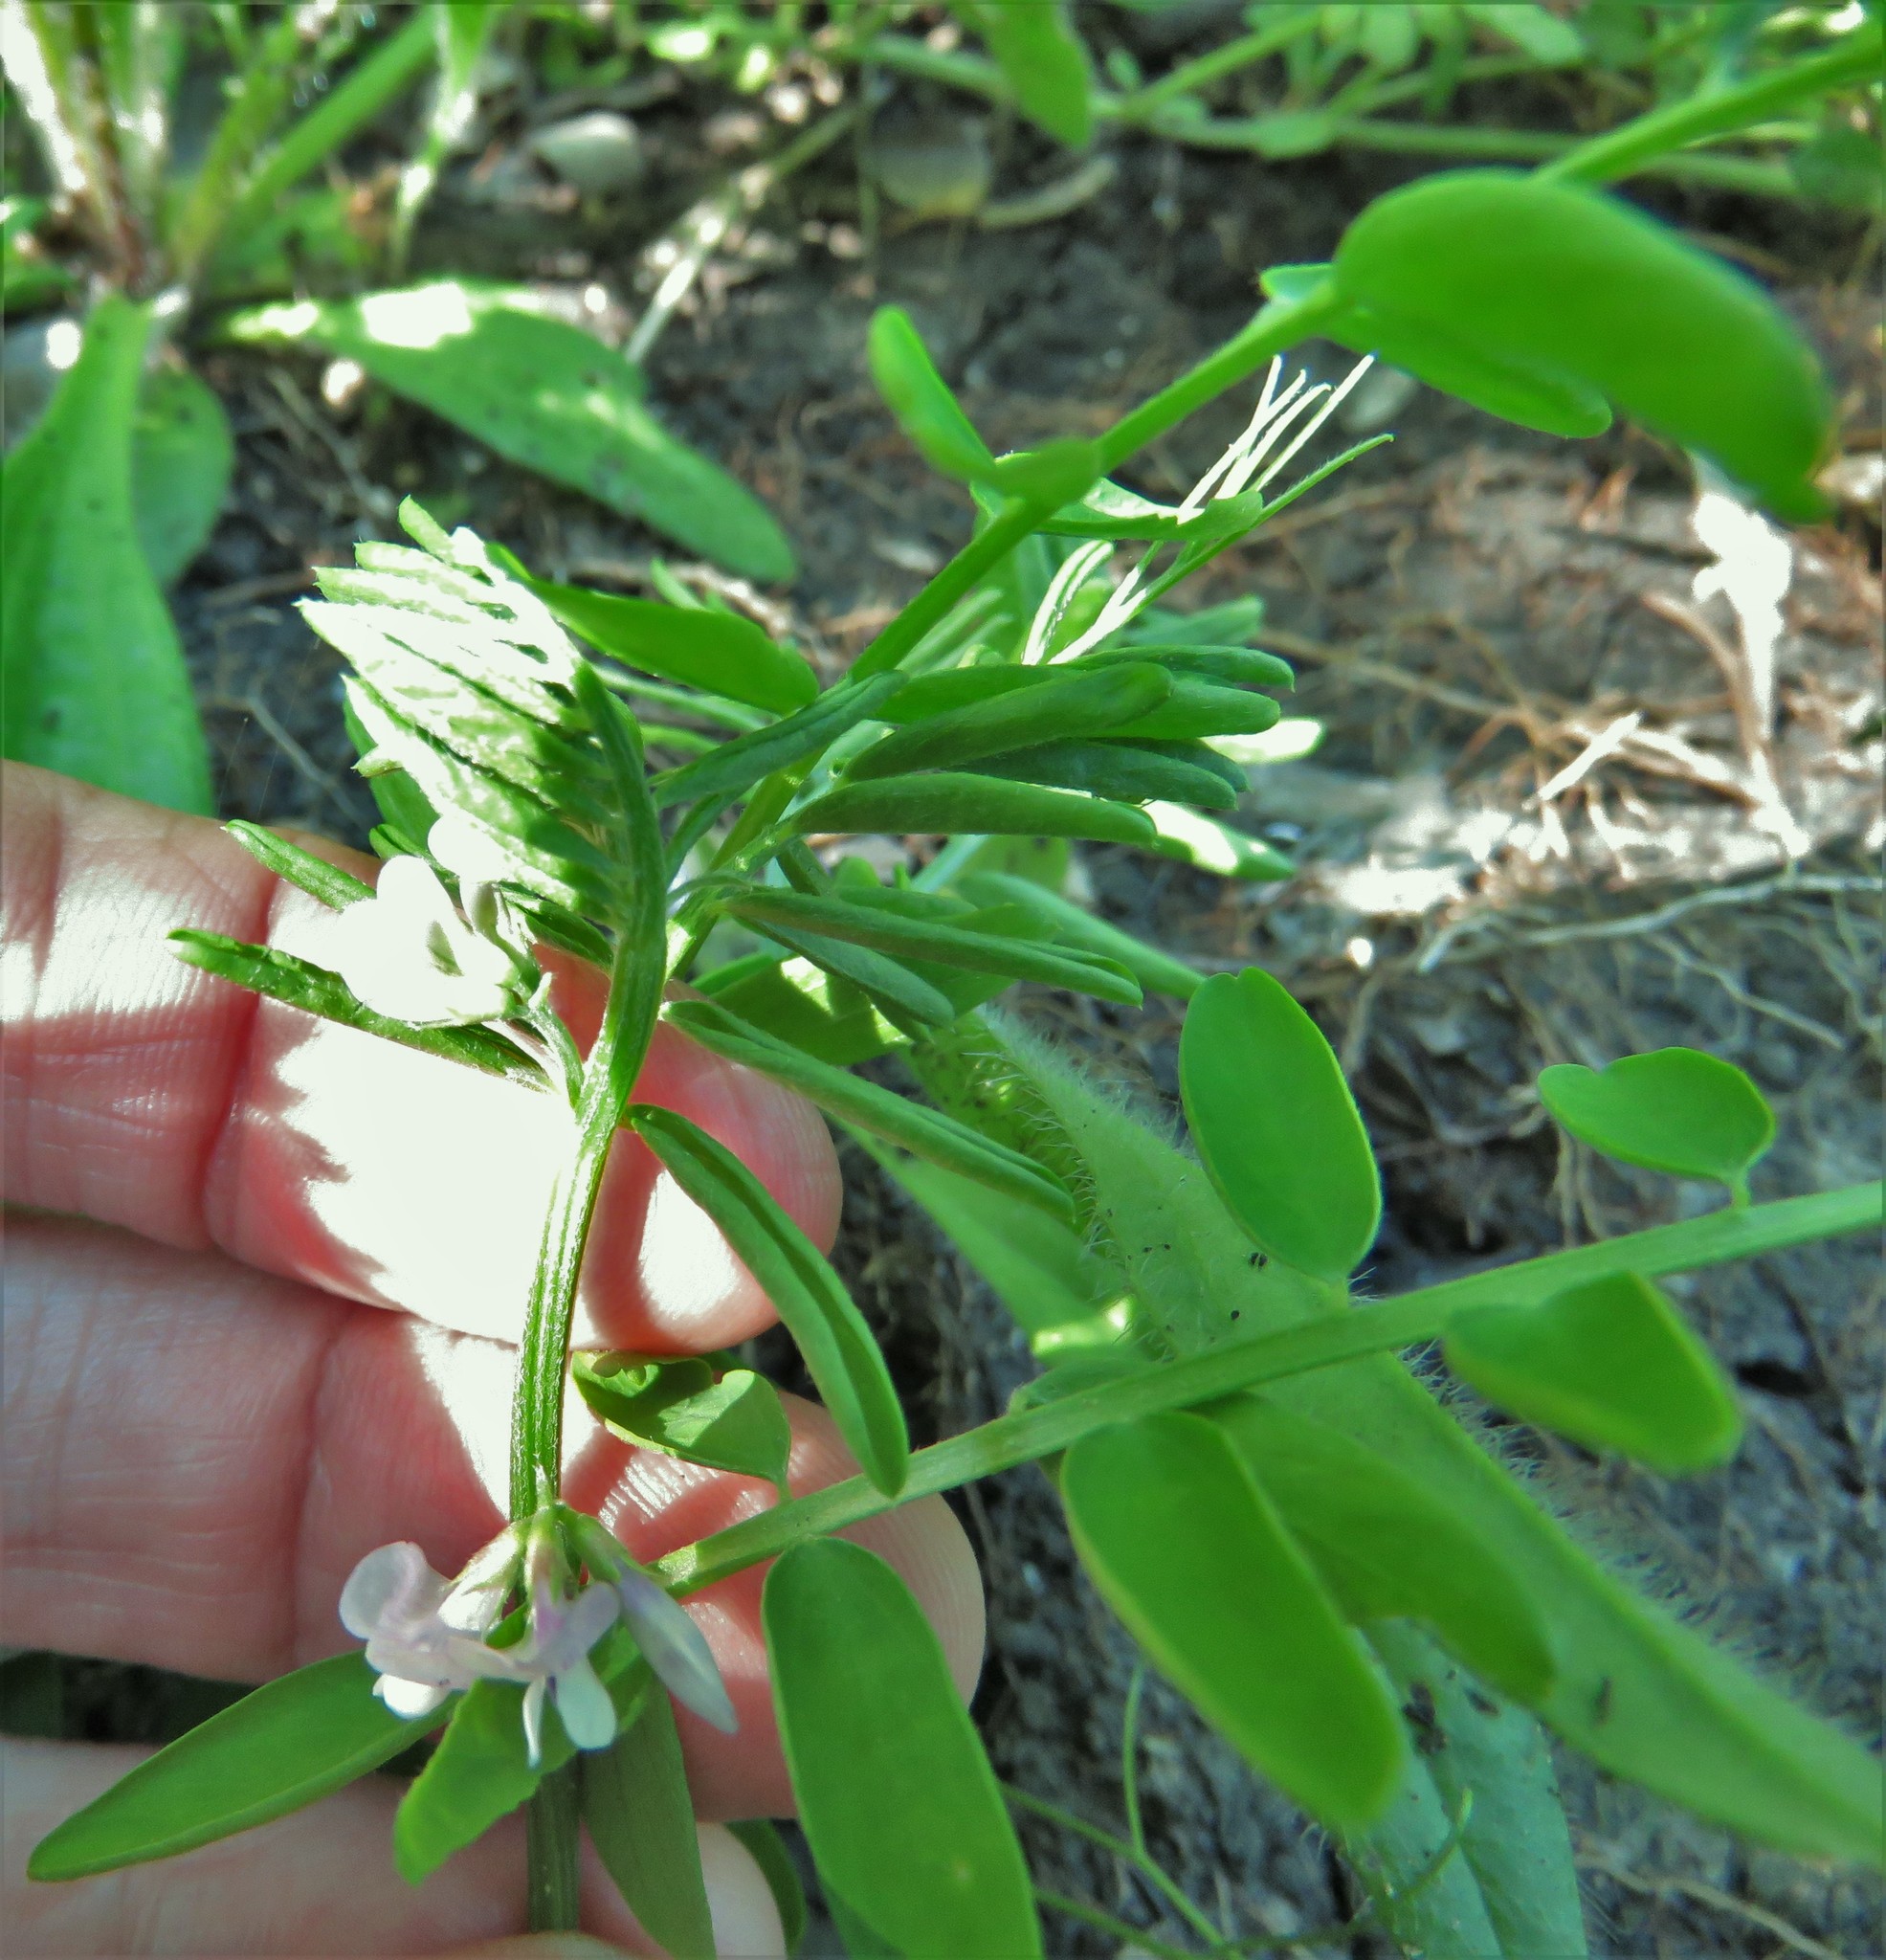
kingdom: Plantae
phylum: Tracheophyta
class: Magnoliopsida
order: Fabales
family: Fabaceae
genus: Vicia
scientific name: Vicia ludoviciana
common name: Louisiana vetch
